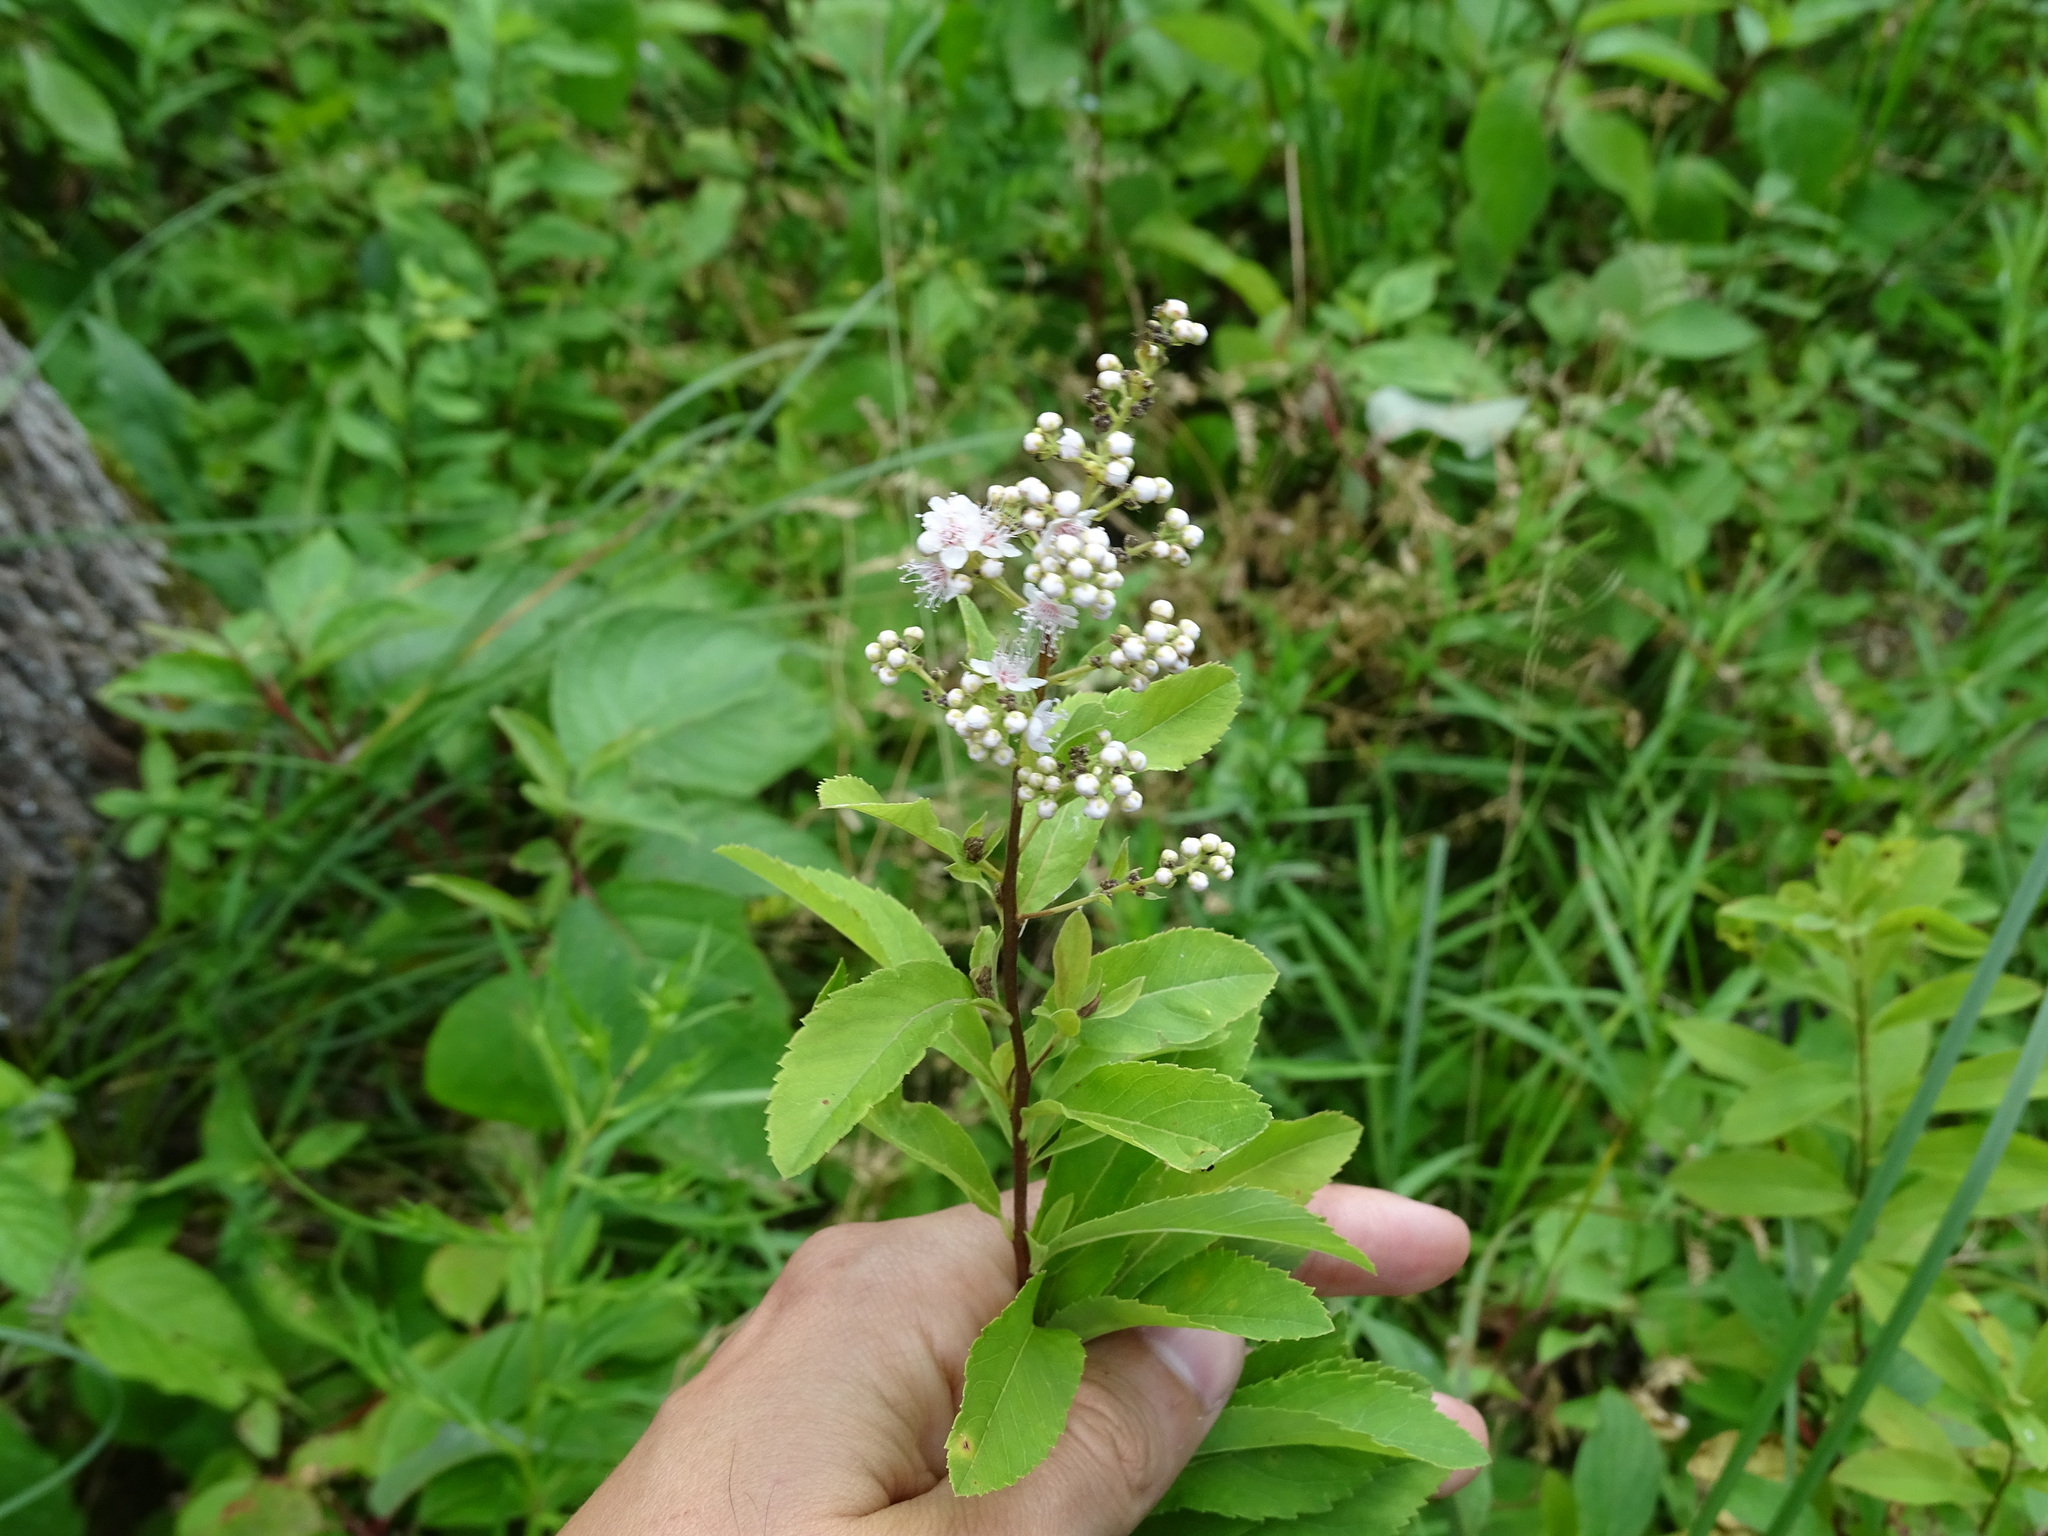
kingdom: Plantae
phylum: Tracheophyta
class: Magnoliopsida
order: Rosales
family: Rosaceae
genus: Spiraea
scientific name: Spiraea alba
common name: Pale bridewort
